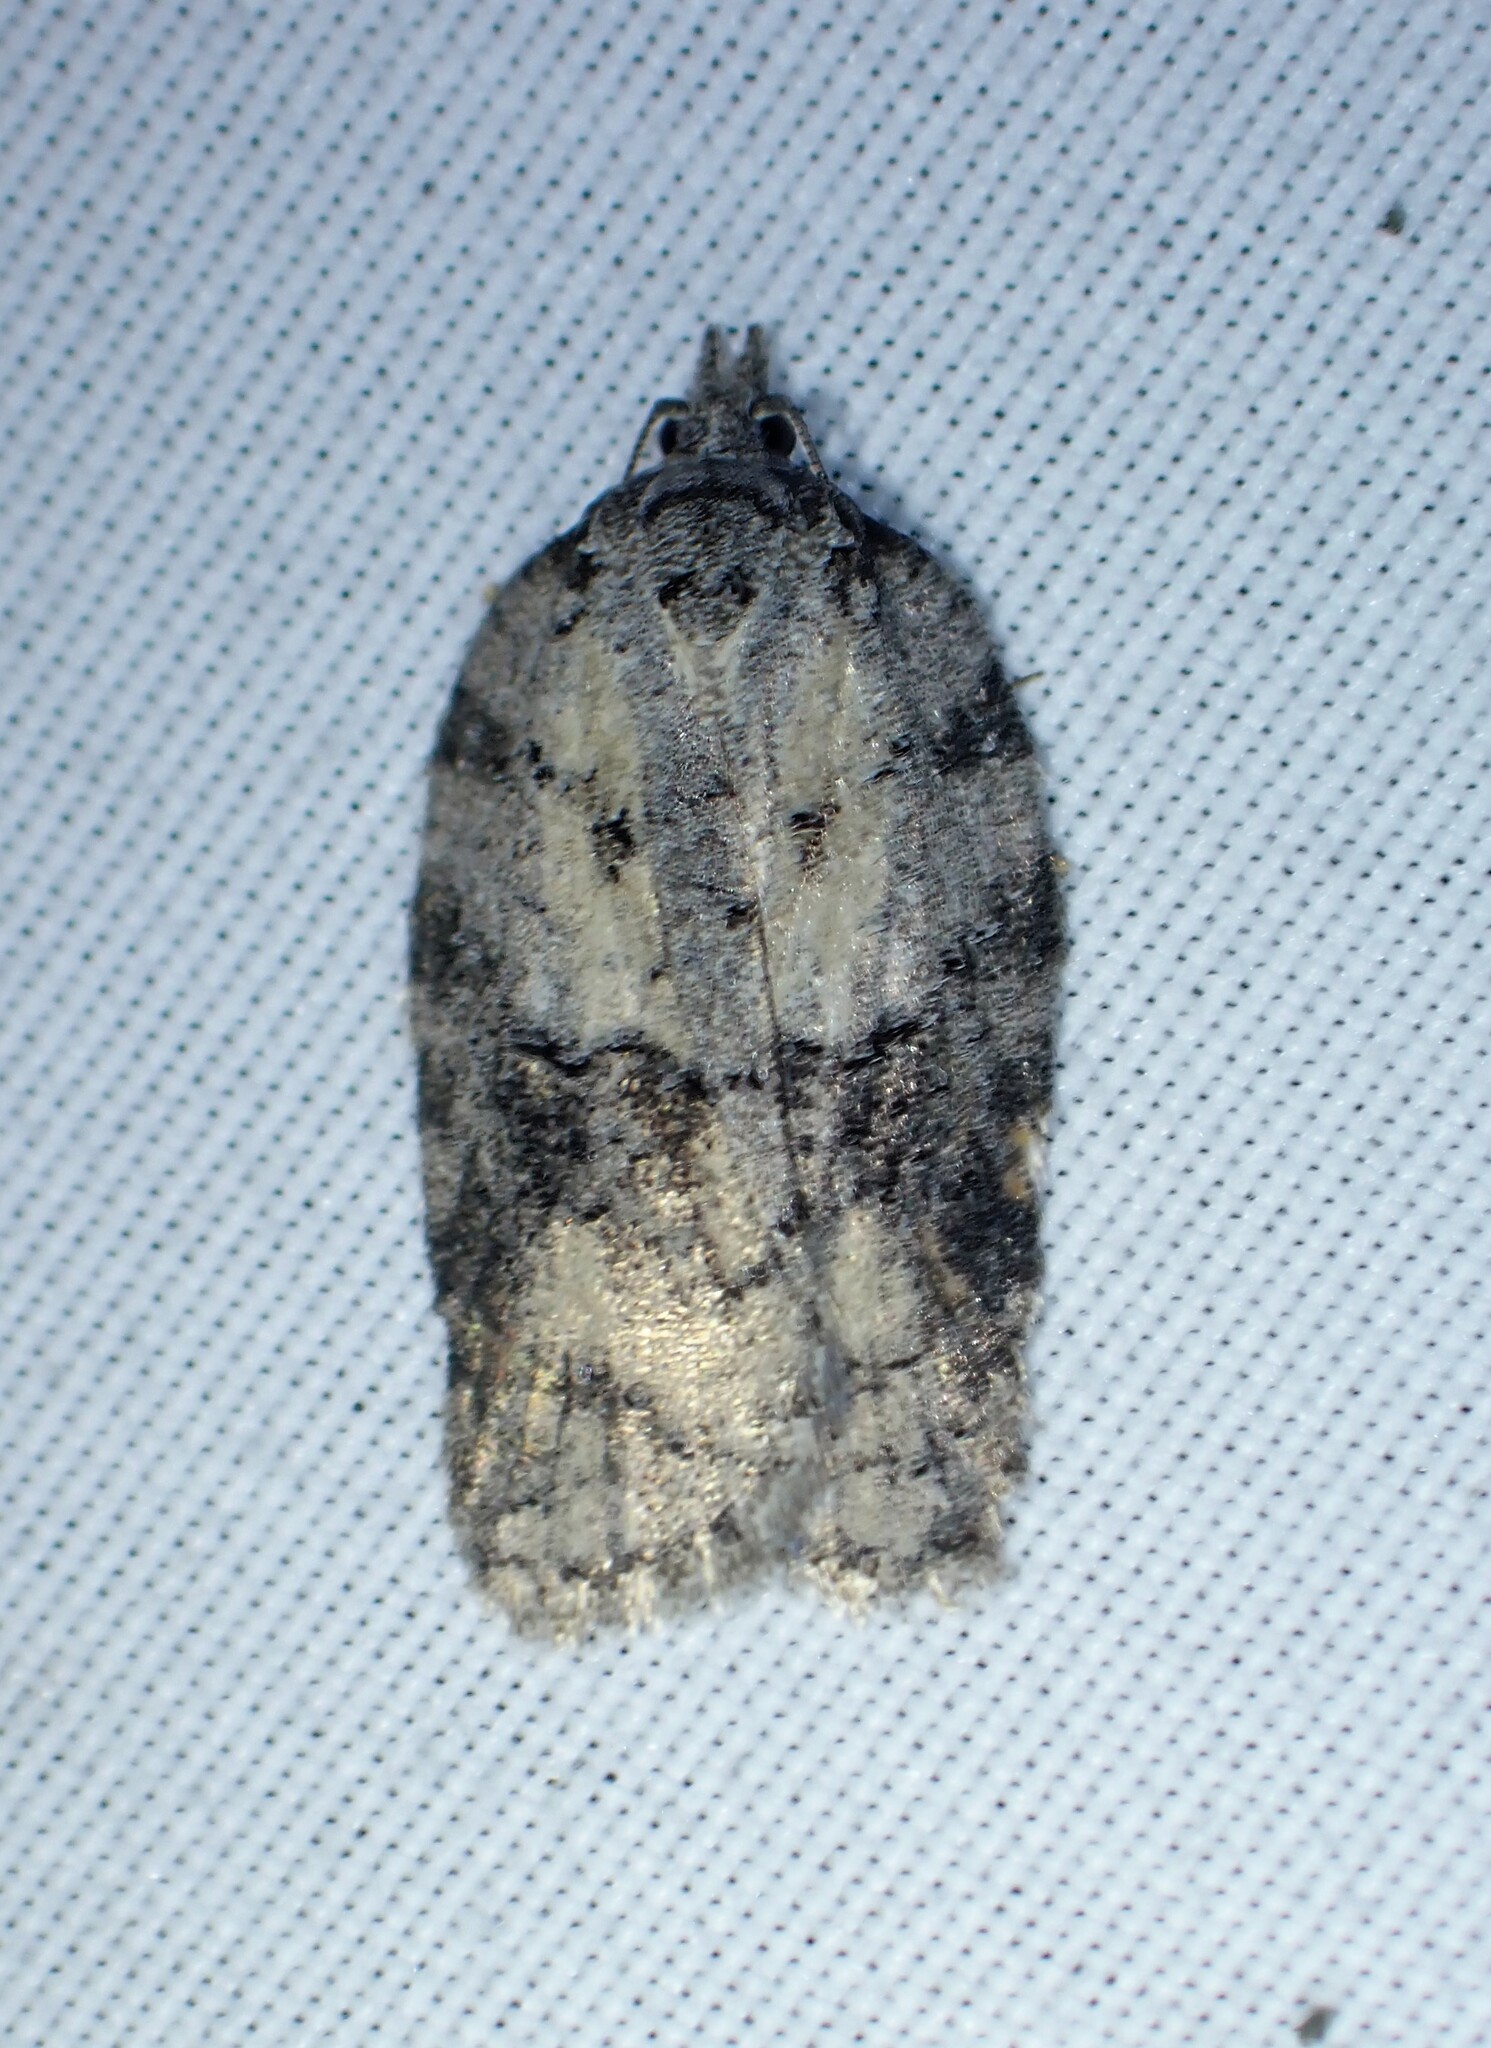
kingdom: Animalia
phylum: Arthropoda
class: Insecta
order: Lepidoptera
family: Tortricidae
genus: Acleris
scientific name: Acleris nigrolinea
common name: Black-lined acleris
